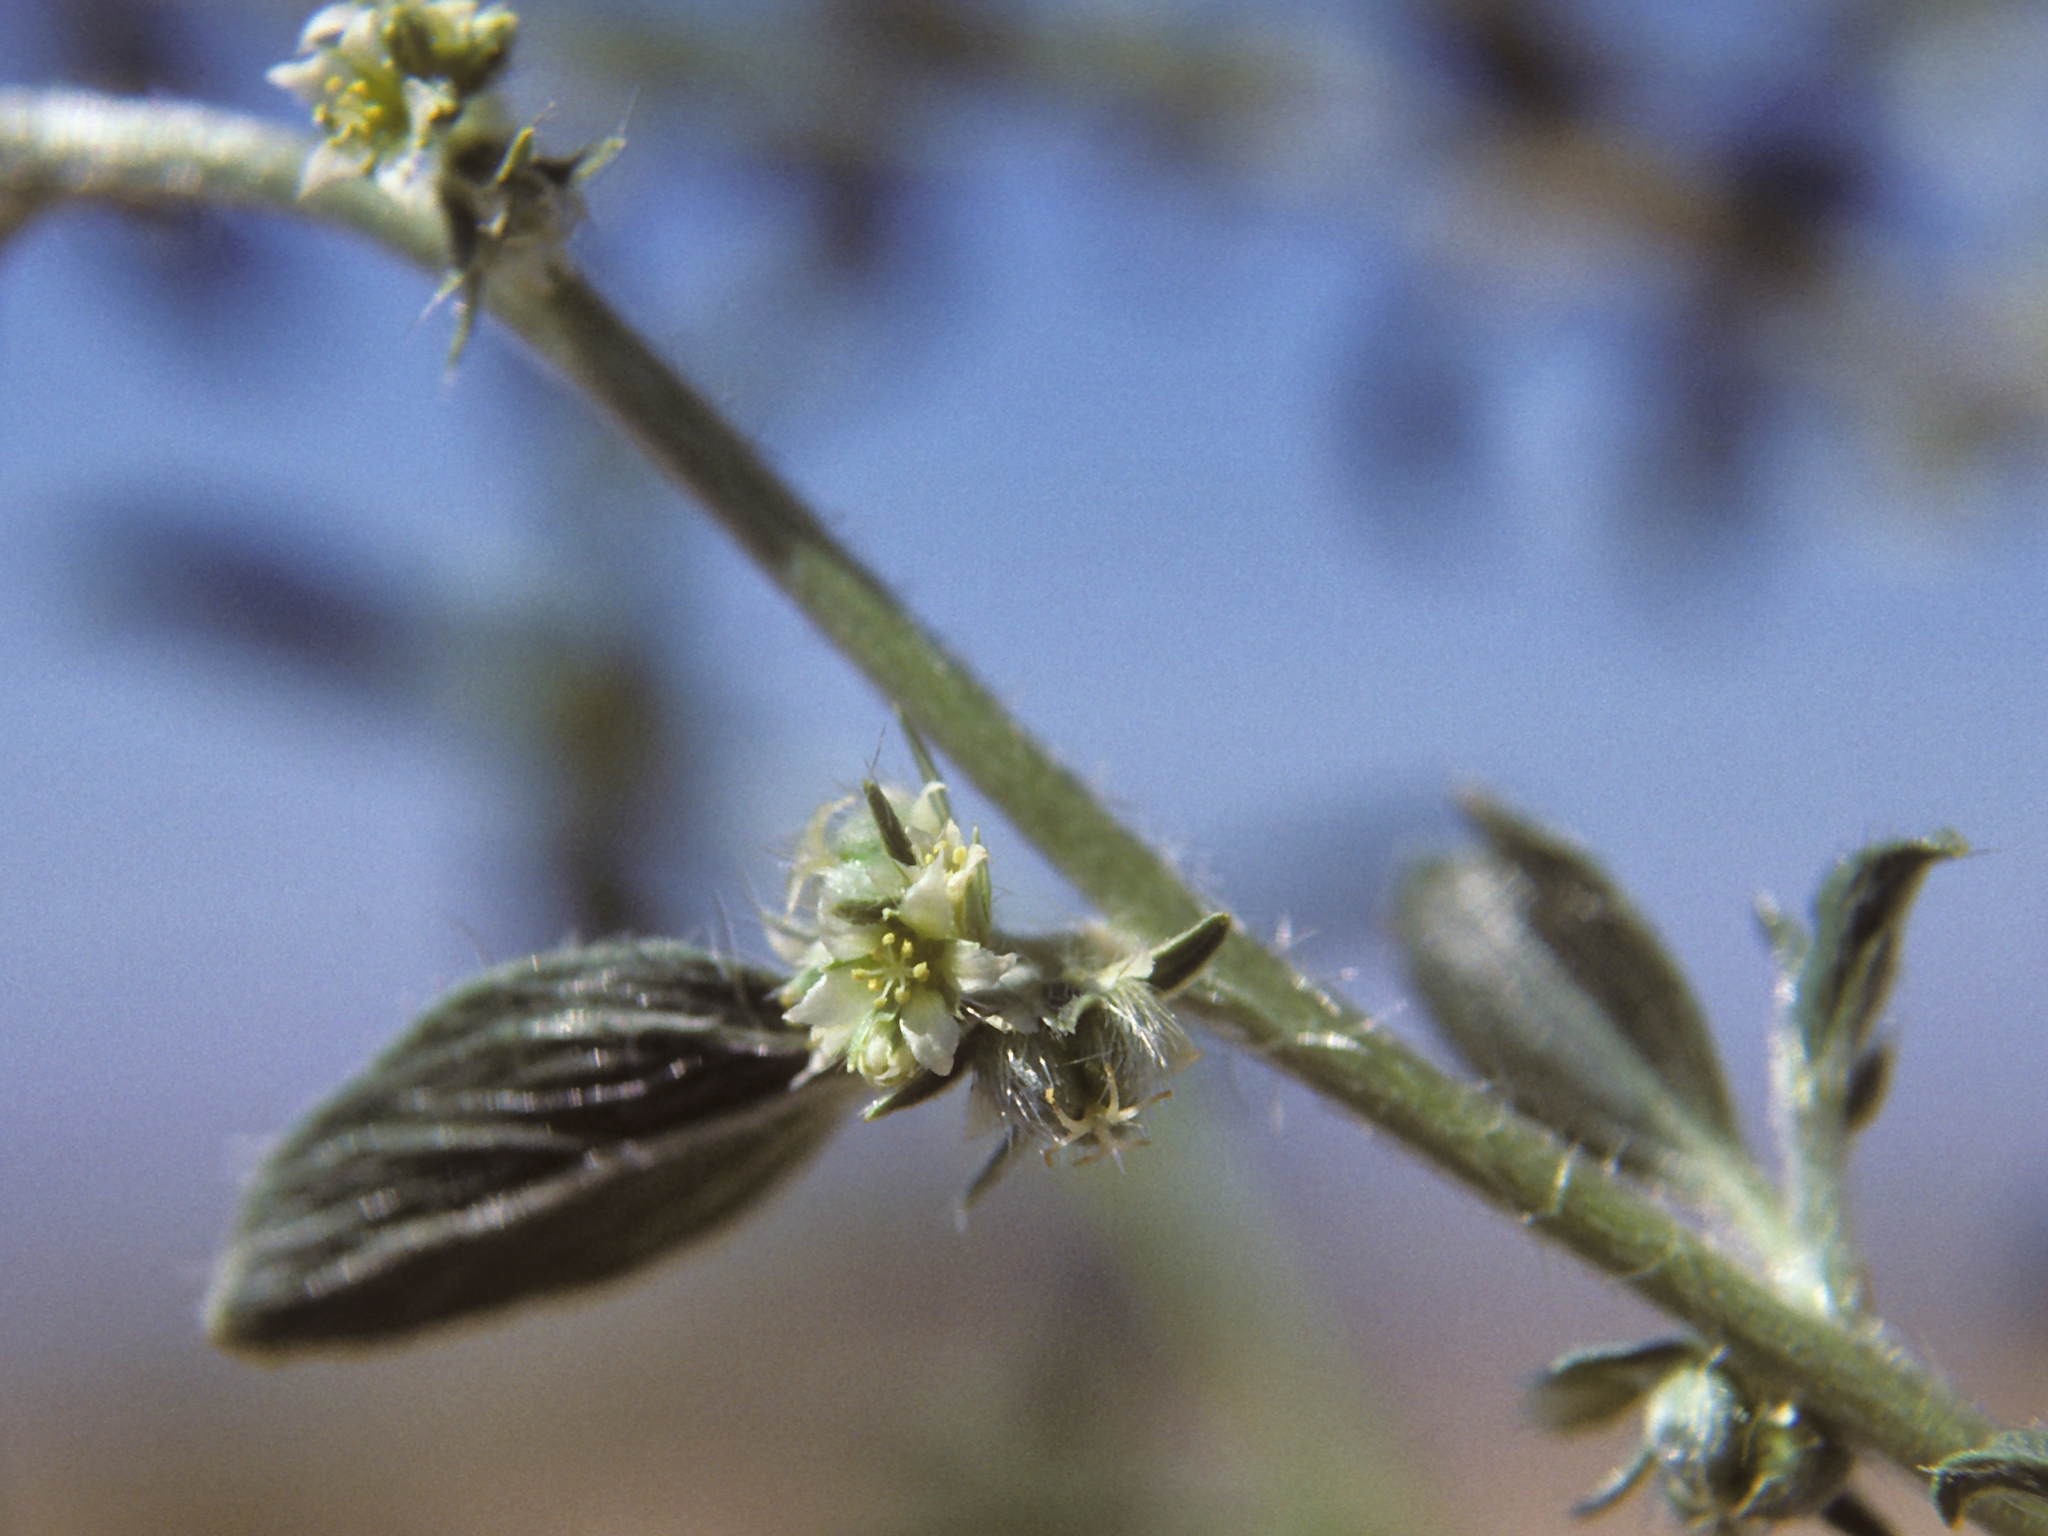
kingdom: Plantae
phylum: Tracheophyta
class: Magnoliopsida
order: Malpighiales
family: Euphorbiaceae
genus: Ditaxis
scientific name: Ditaxis serrata
